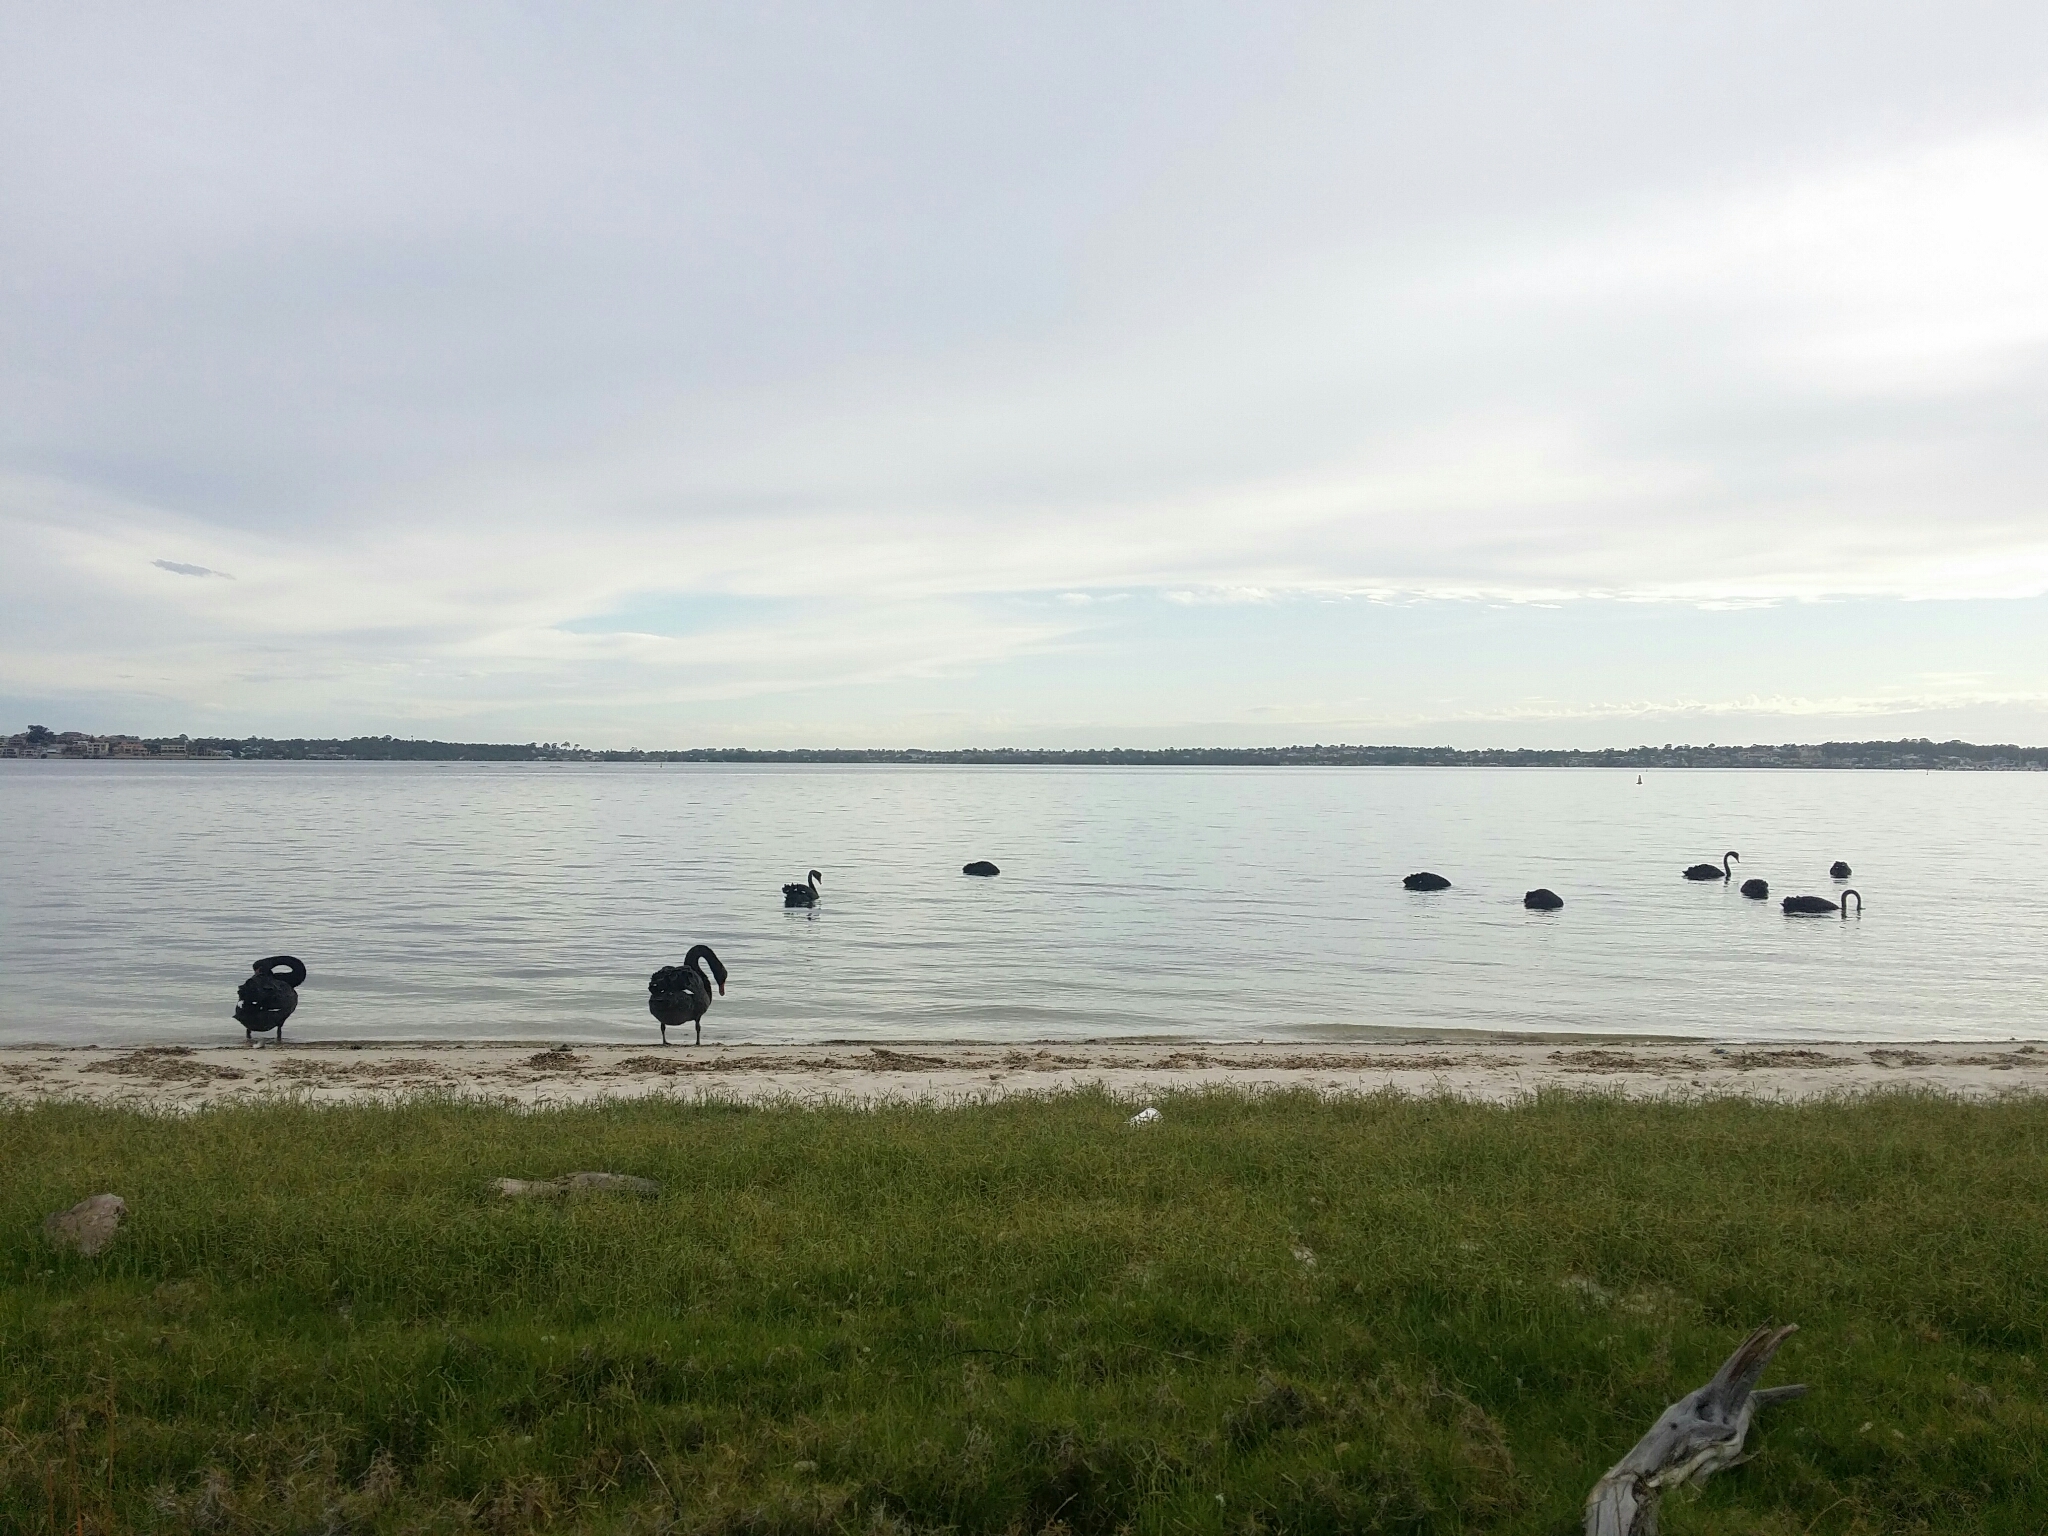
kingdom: Animalia
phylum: Chordata
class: Aves
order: Anseriformes
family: Anatidae
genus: Cygnus
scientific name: Cygnus atratus
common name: Black swan
